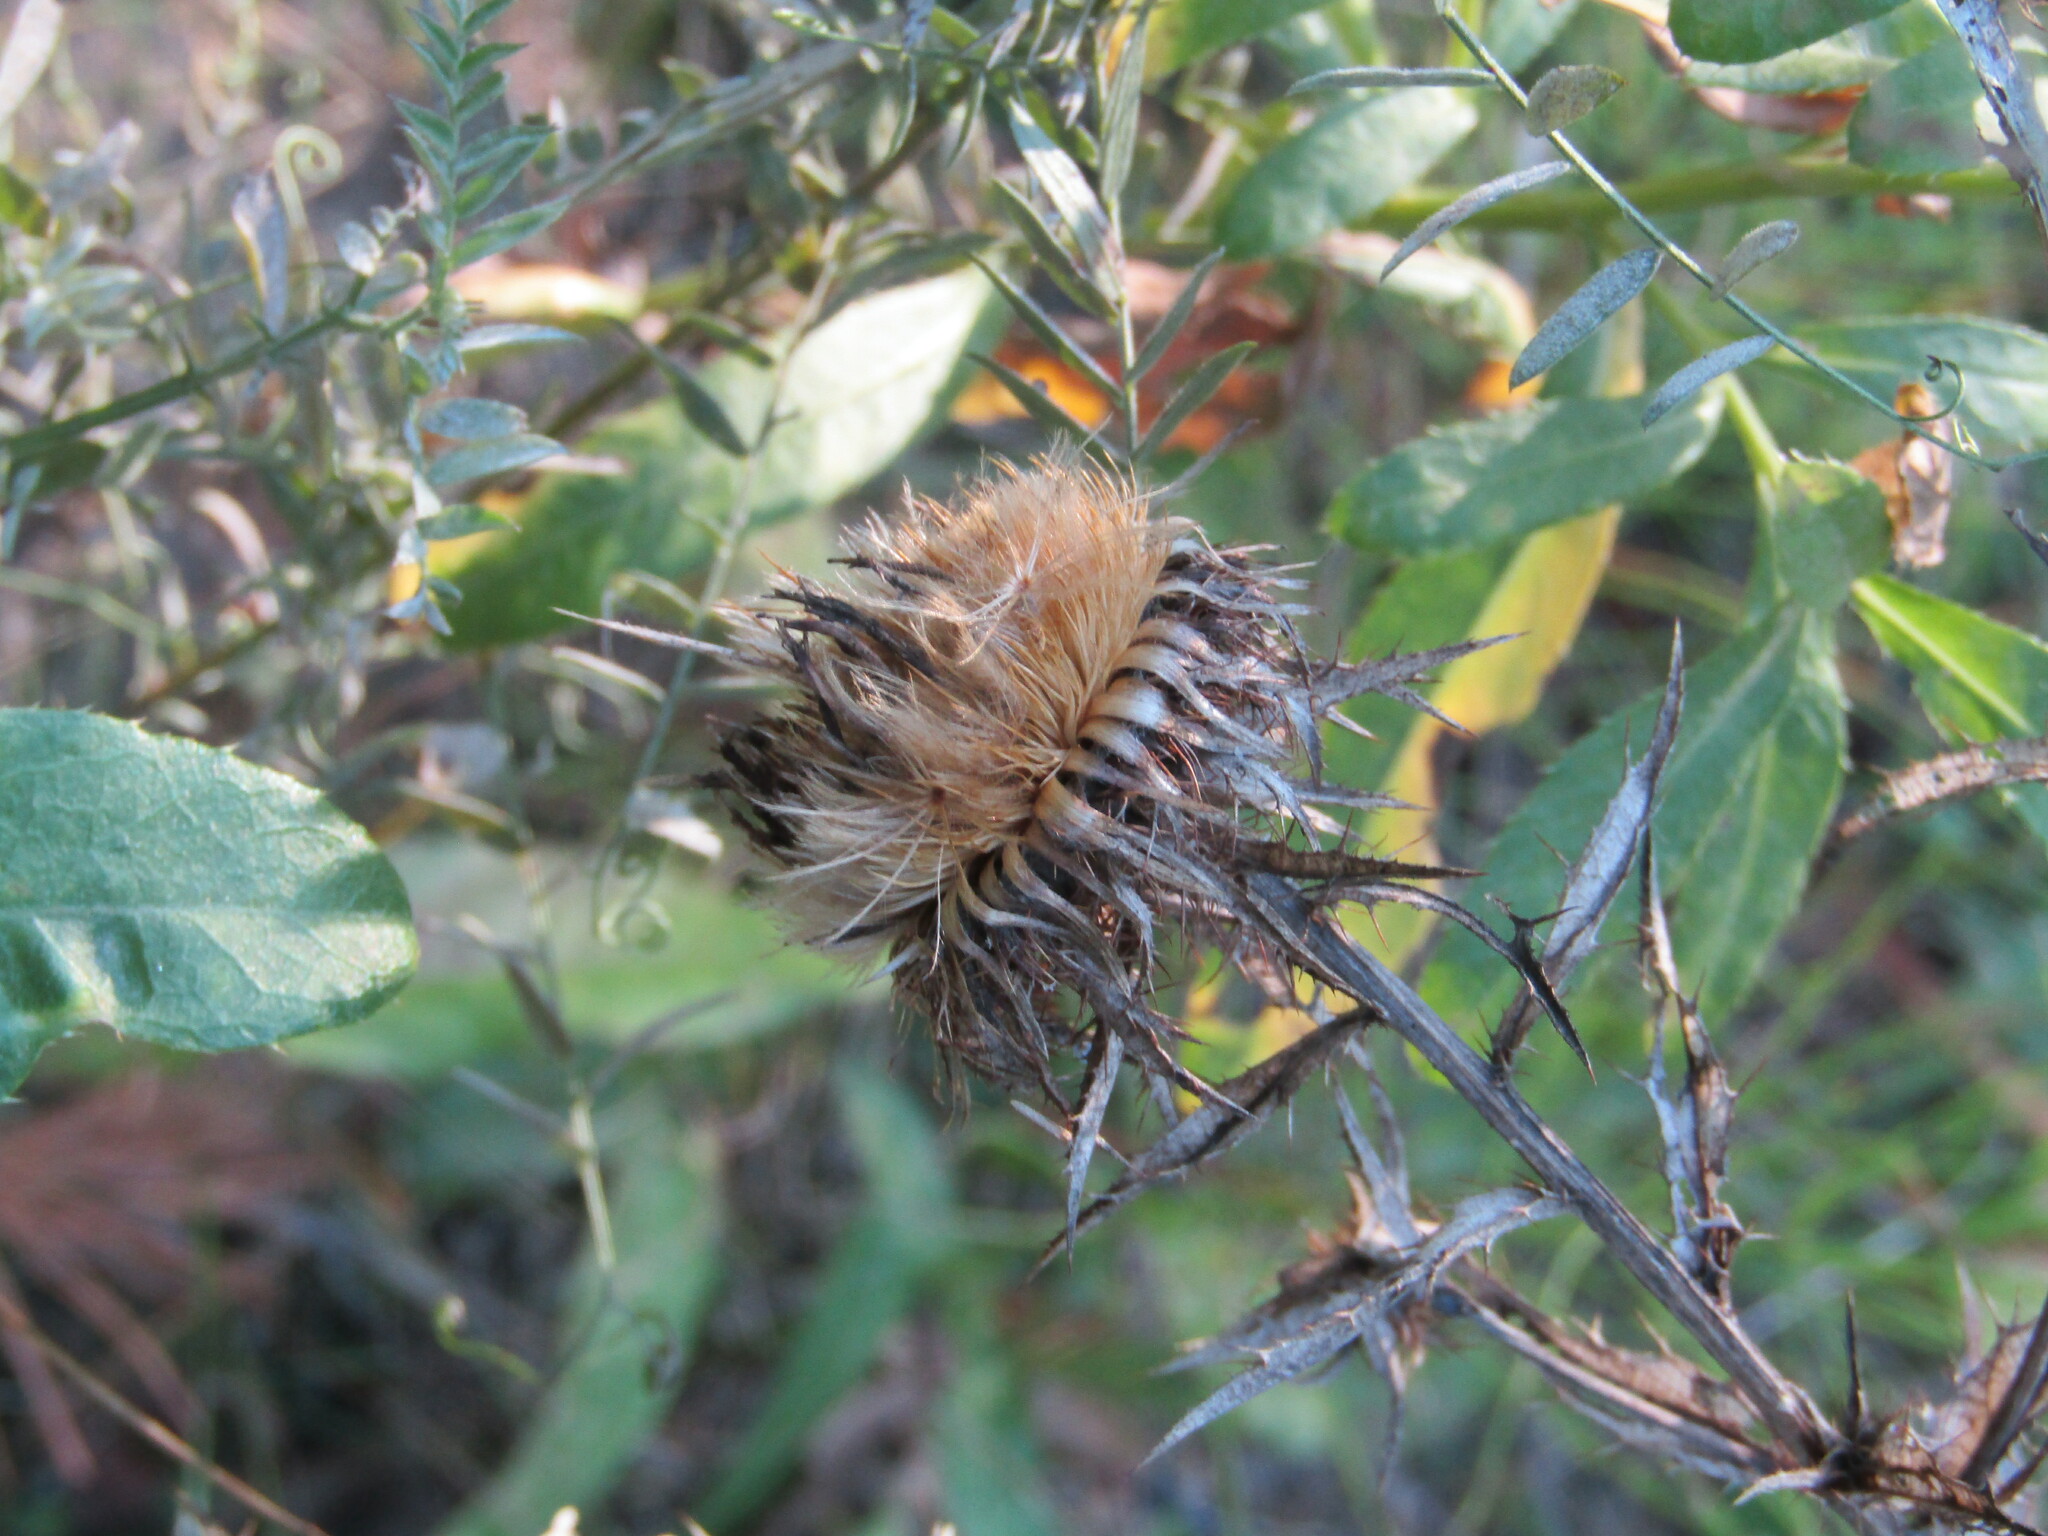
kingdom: Plantae
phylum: Tracheophyta
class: Magnoliopsida
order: Asterales
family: Asteraceae
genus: Carlina
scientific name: Carlina biebersteinii
